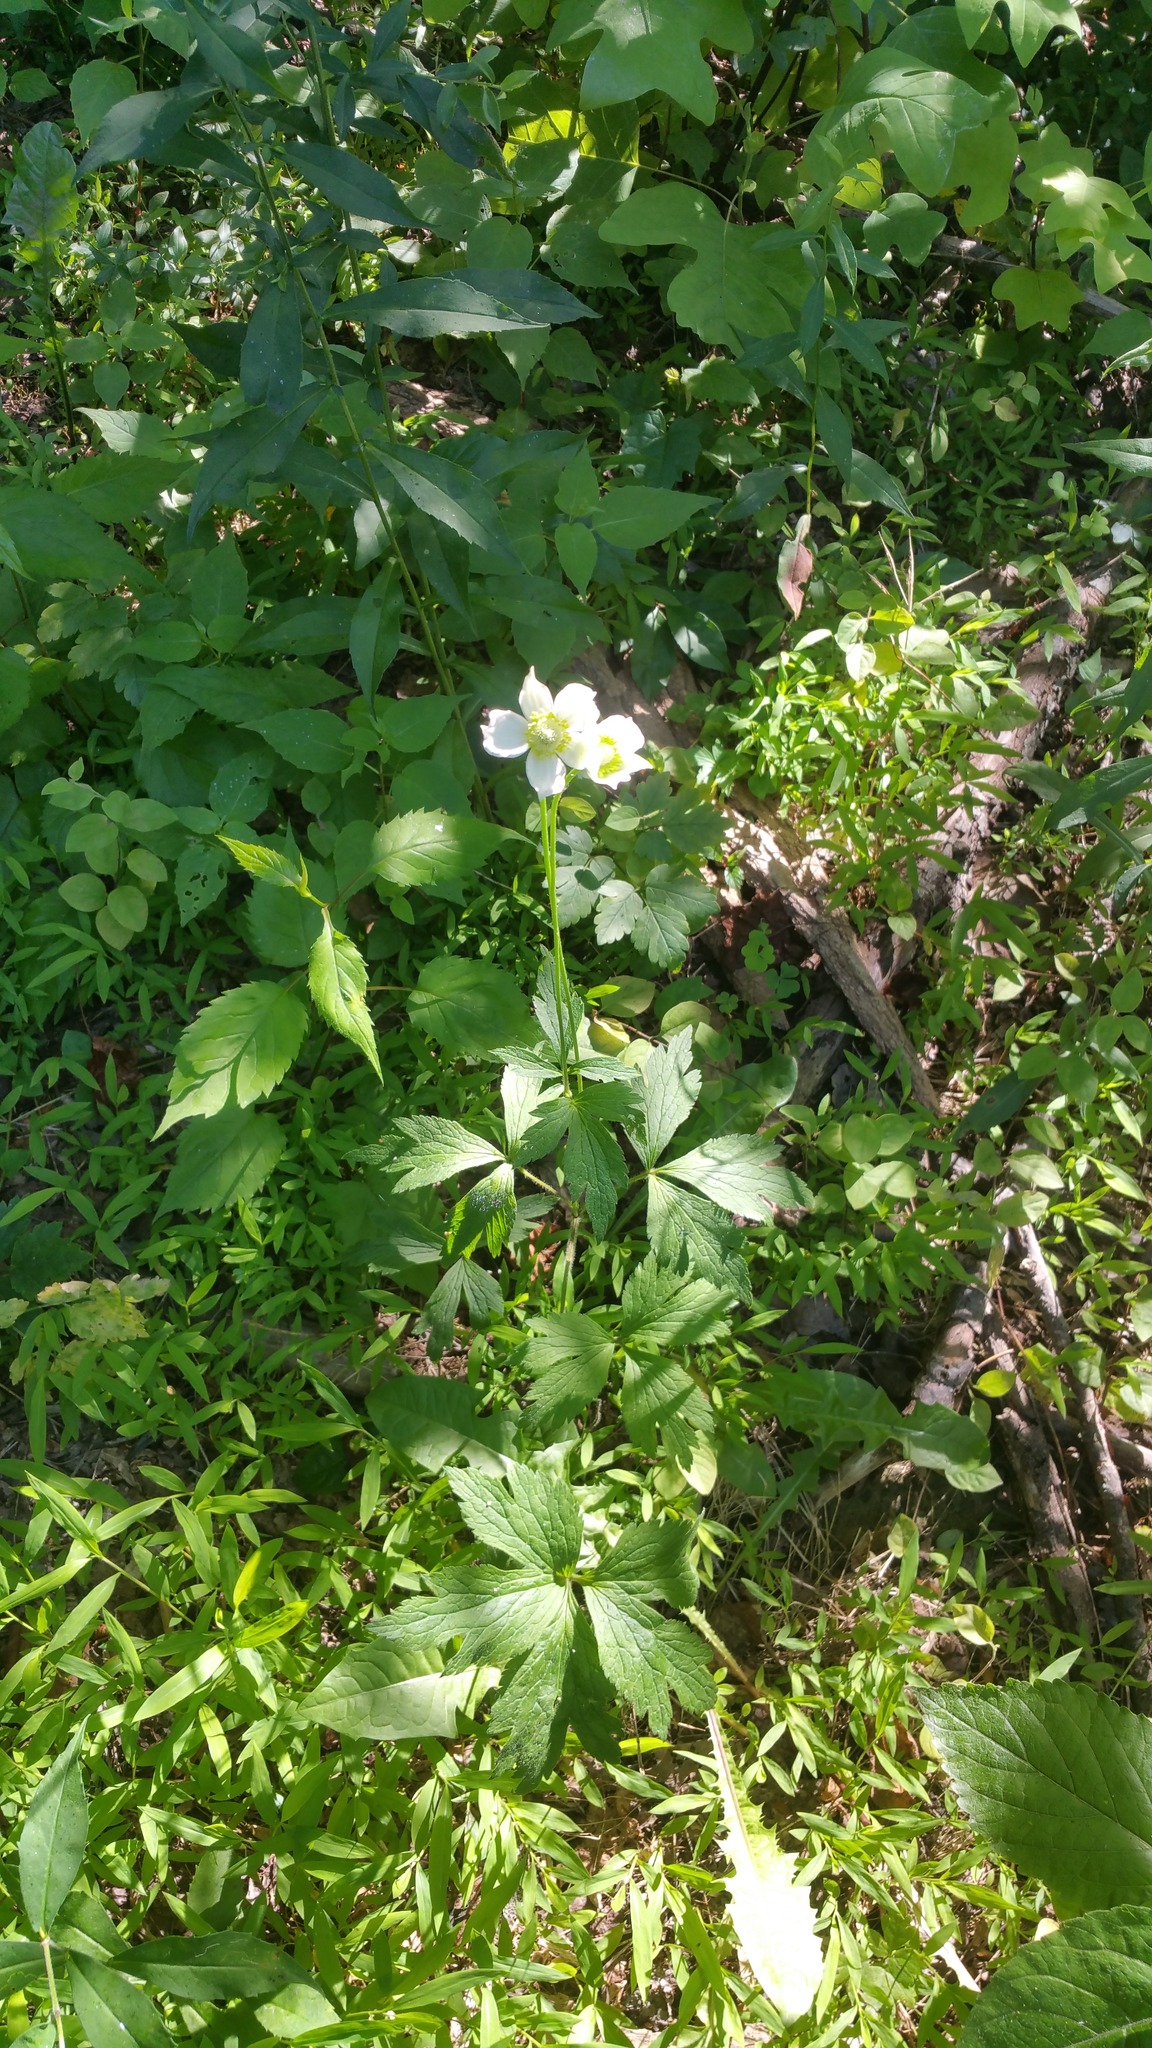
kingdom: Plantae
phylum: Tracheophyta
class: Magnoliopsida
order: Ranunculales
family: Ranunculaceae
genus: Anemone
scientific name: Anemone virginiana
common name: Tall anemone
